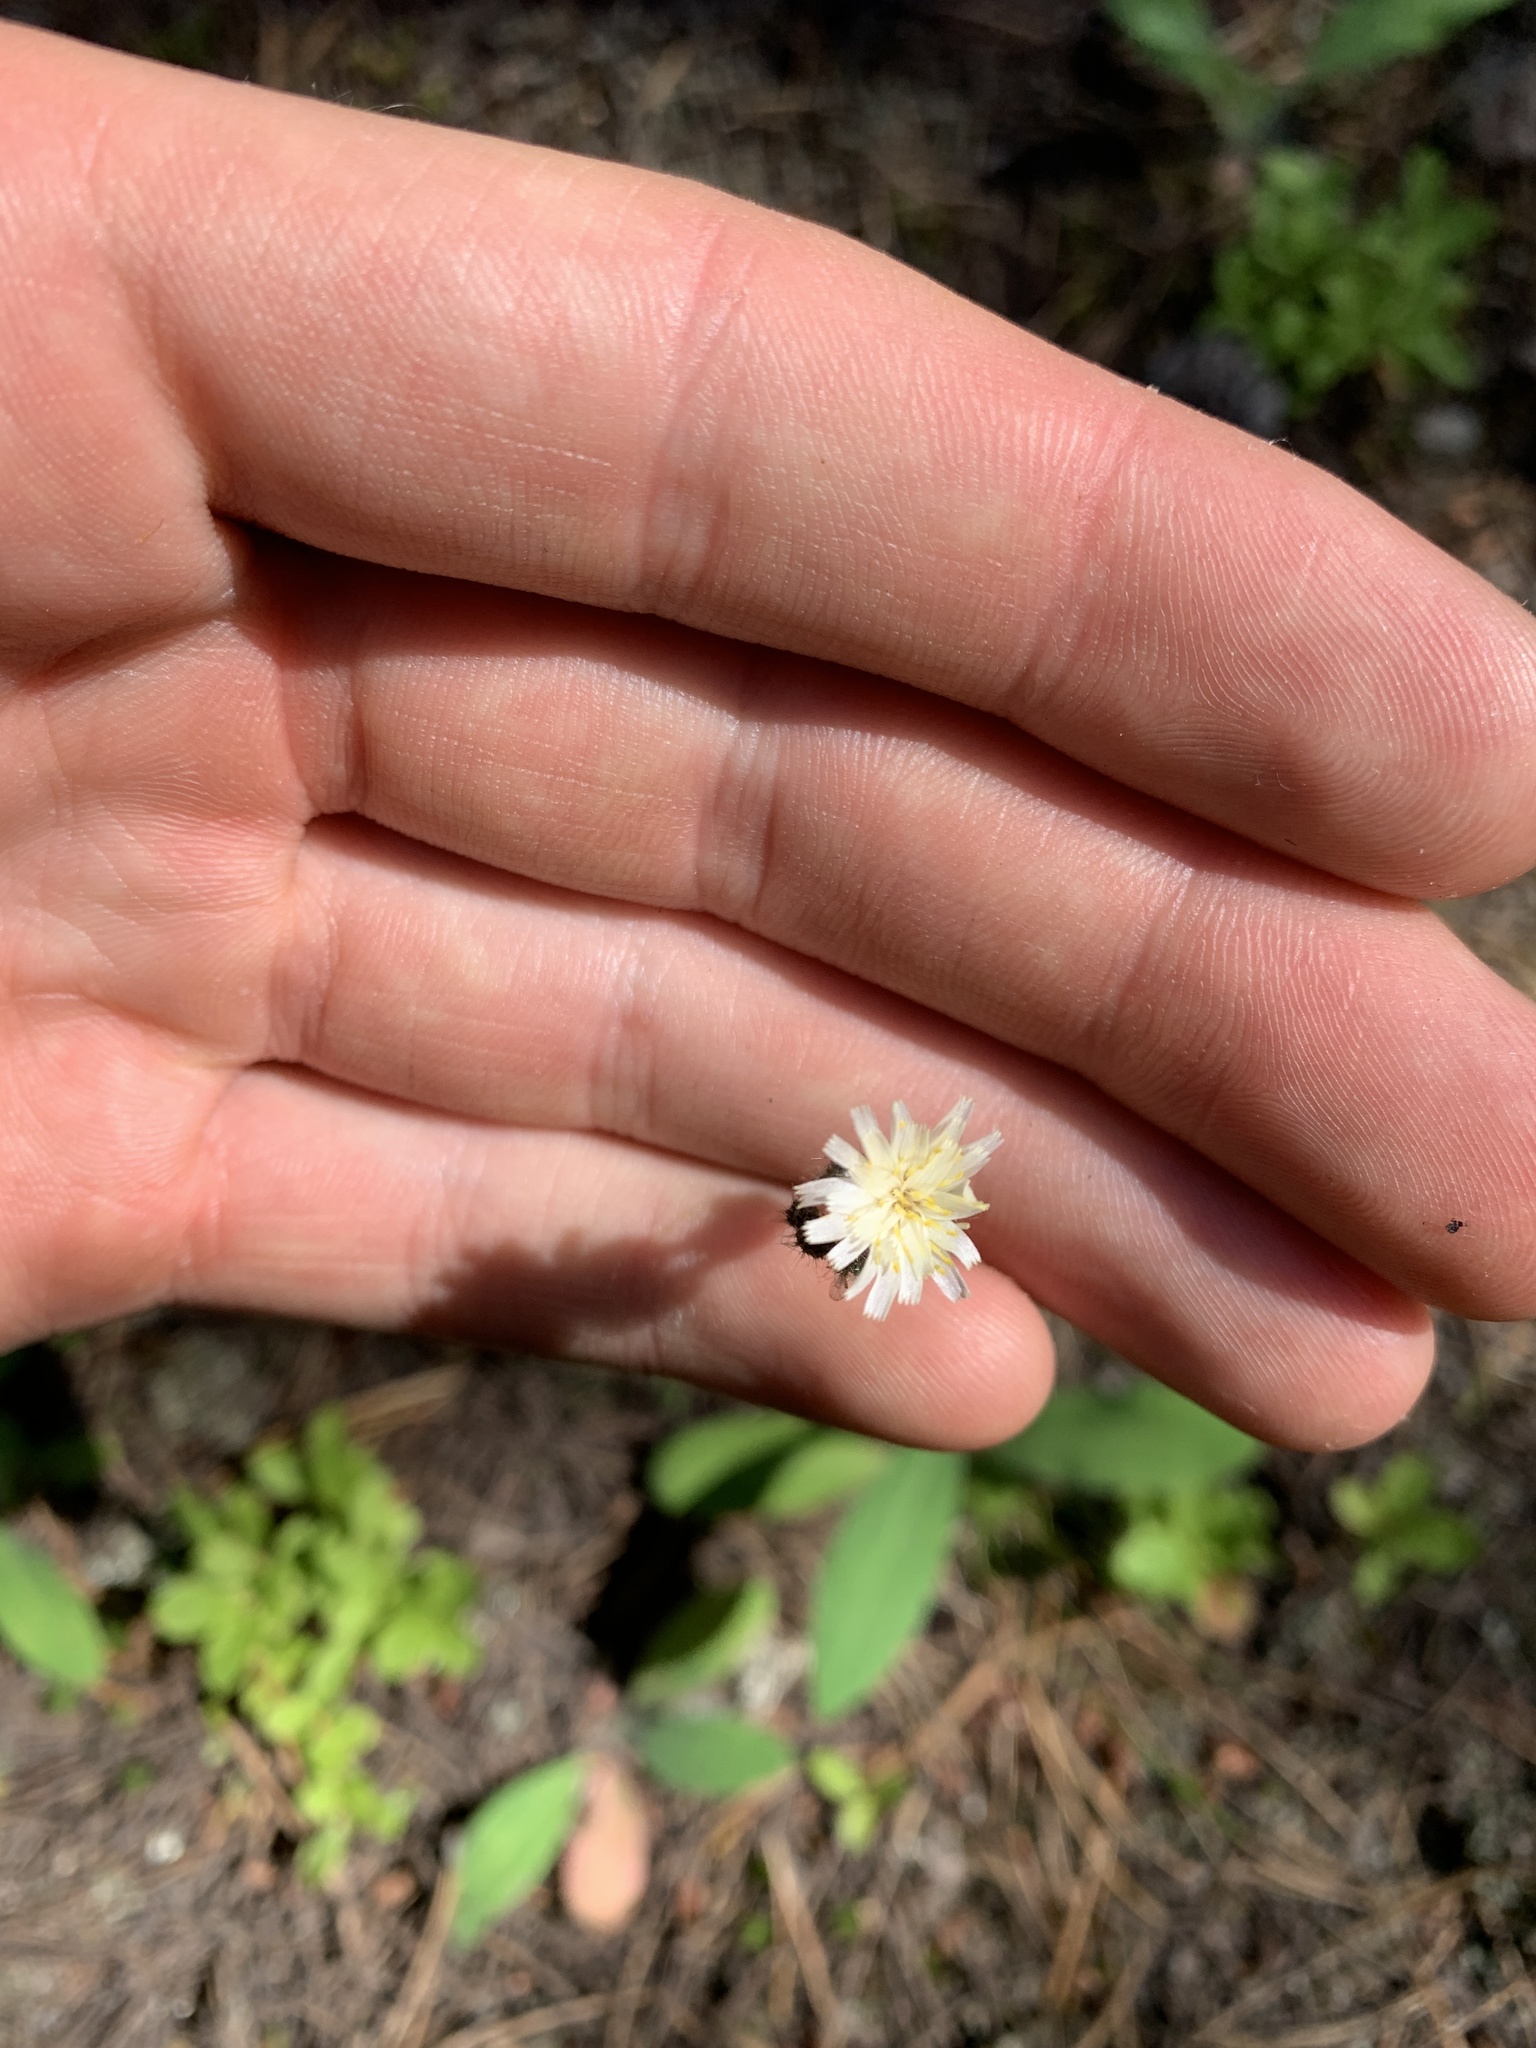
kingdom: Plantae
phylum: Tracheophyta
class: Magnoliopsida
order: Asterales
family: Asteraceae
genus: Hieracium
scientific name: Hieracium albiflorum
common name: White hawkweed
